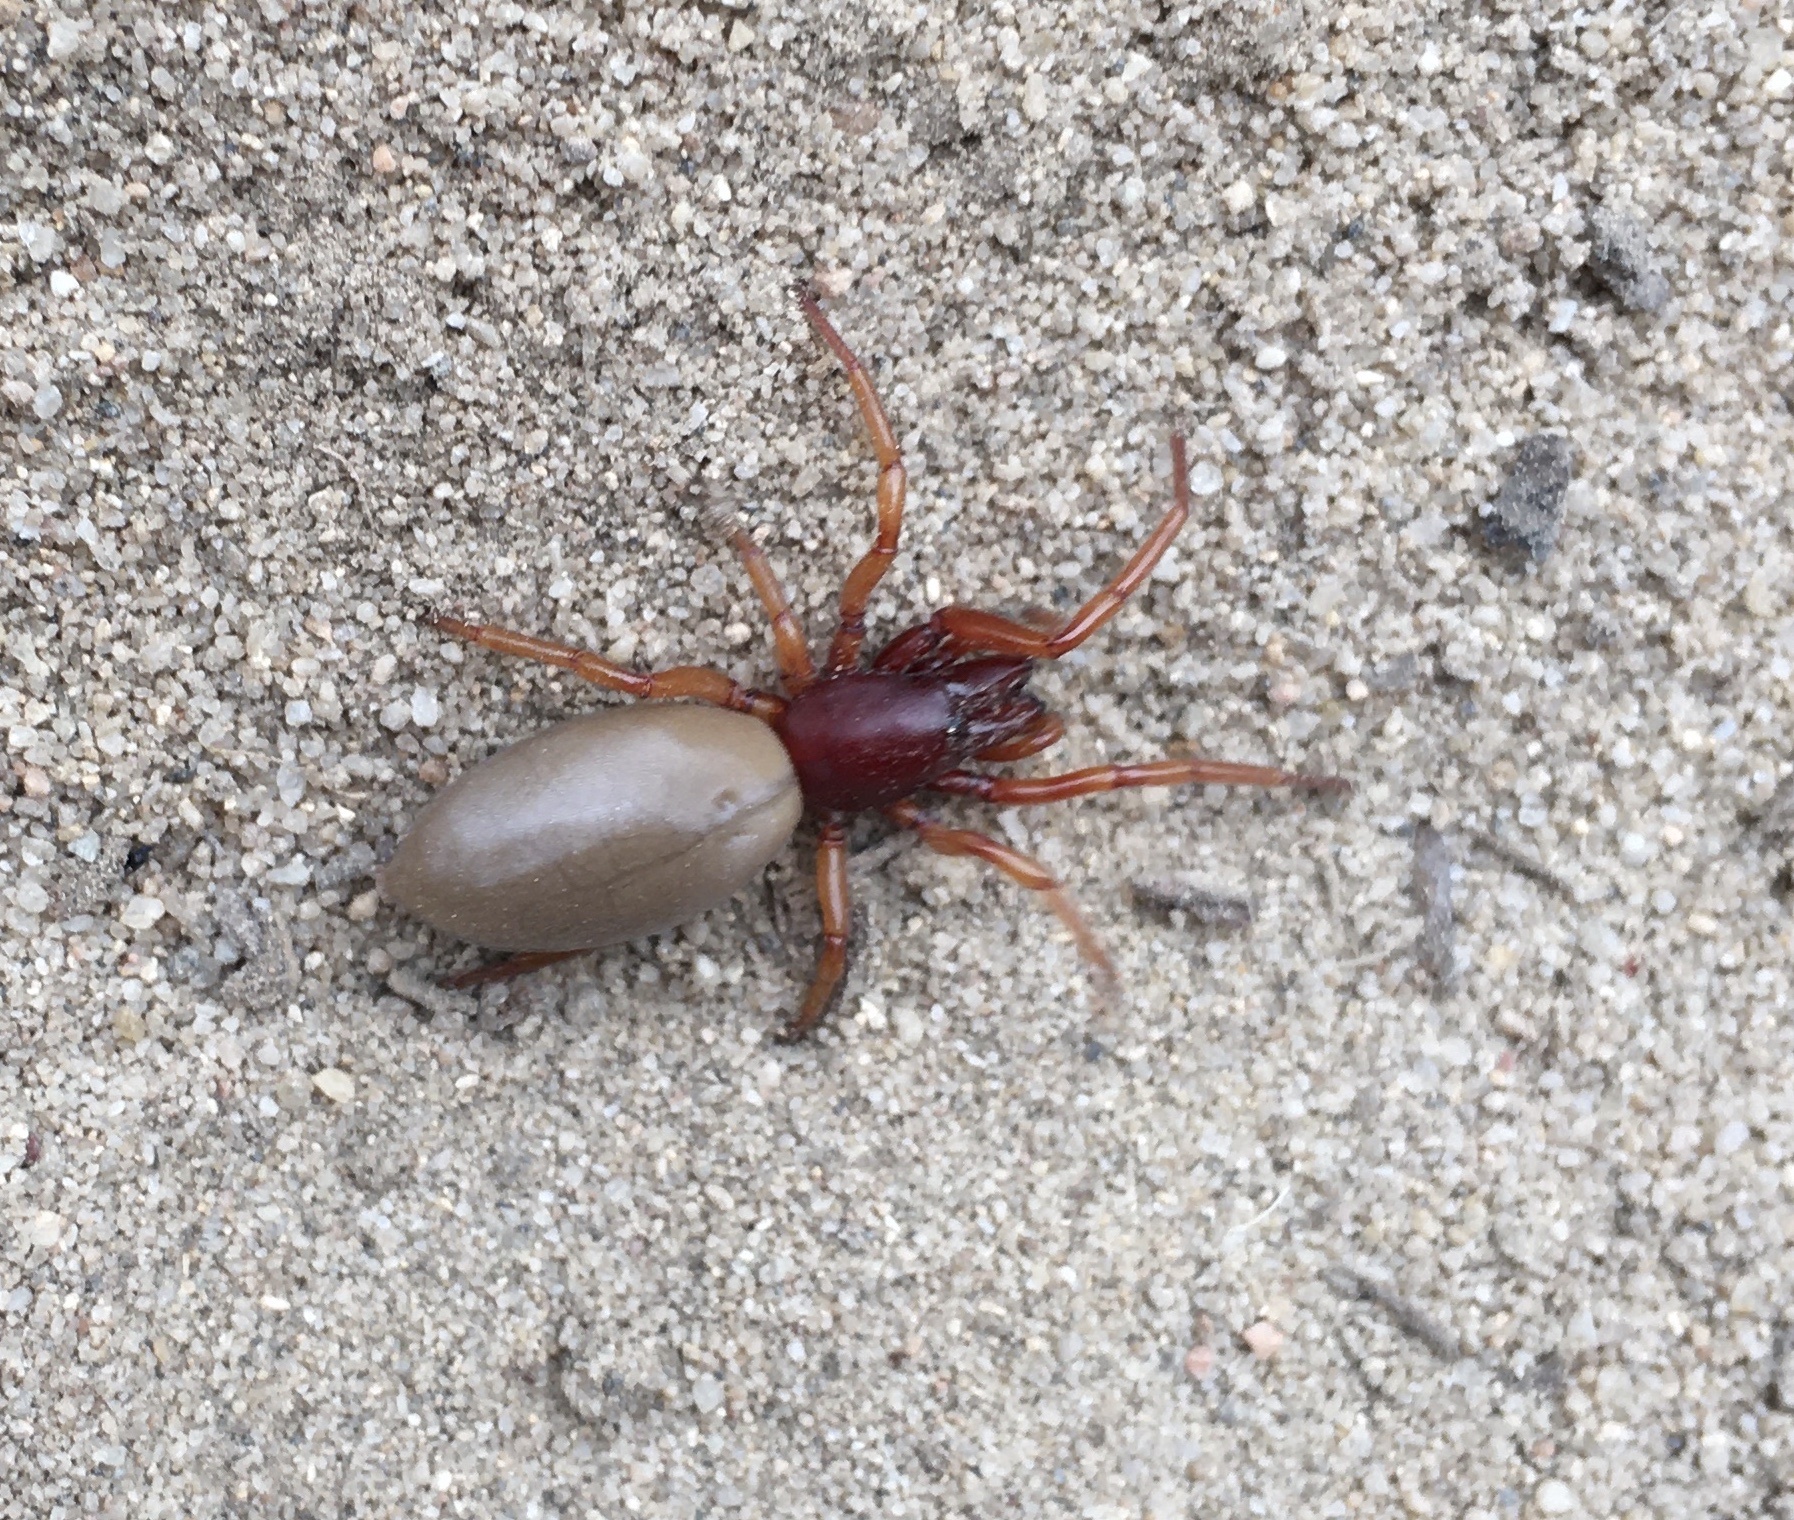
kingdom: Animalia
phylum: Arthropoda
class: Arachnida
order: Araneae
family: Dysderidae
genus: Dysdera
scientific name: Dysdera crocata
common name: Woodlouse spider
